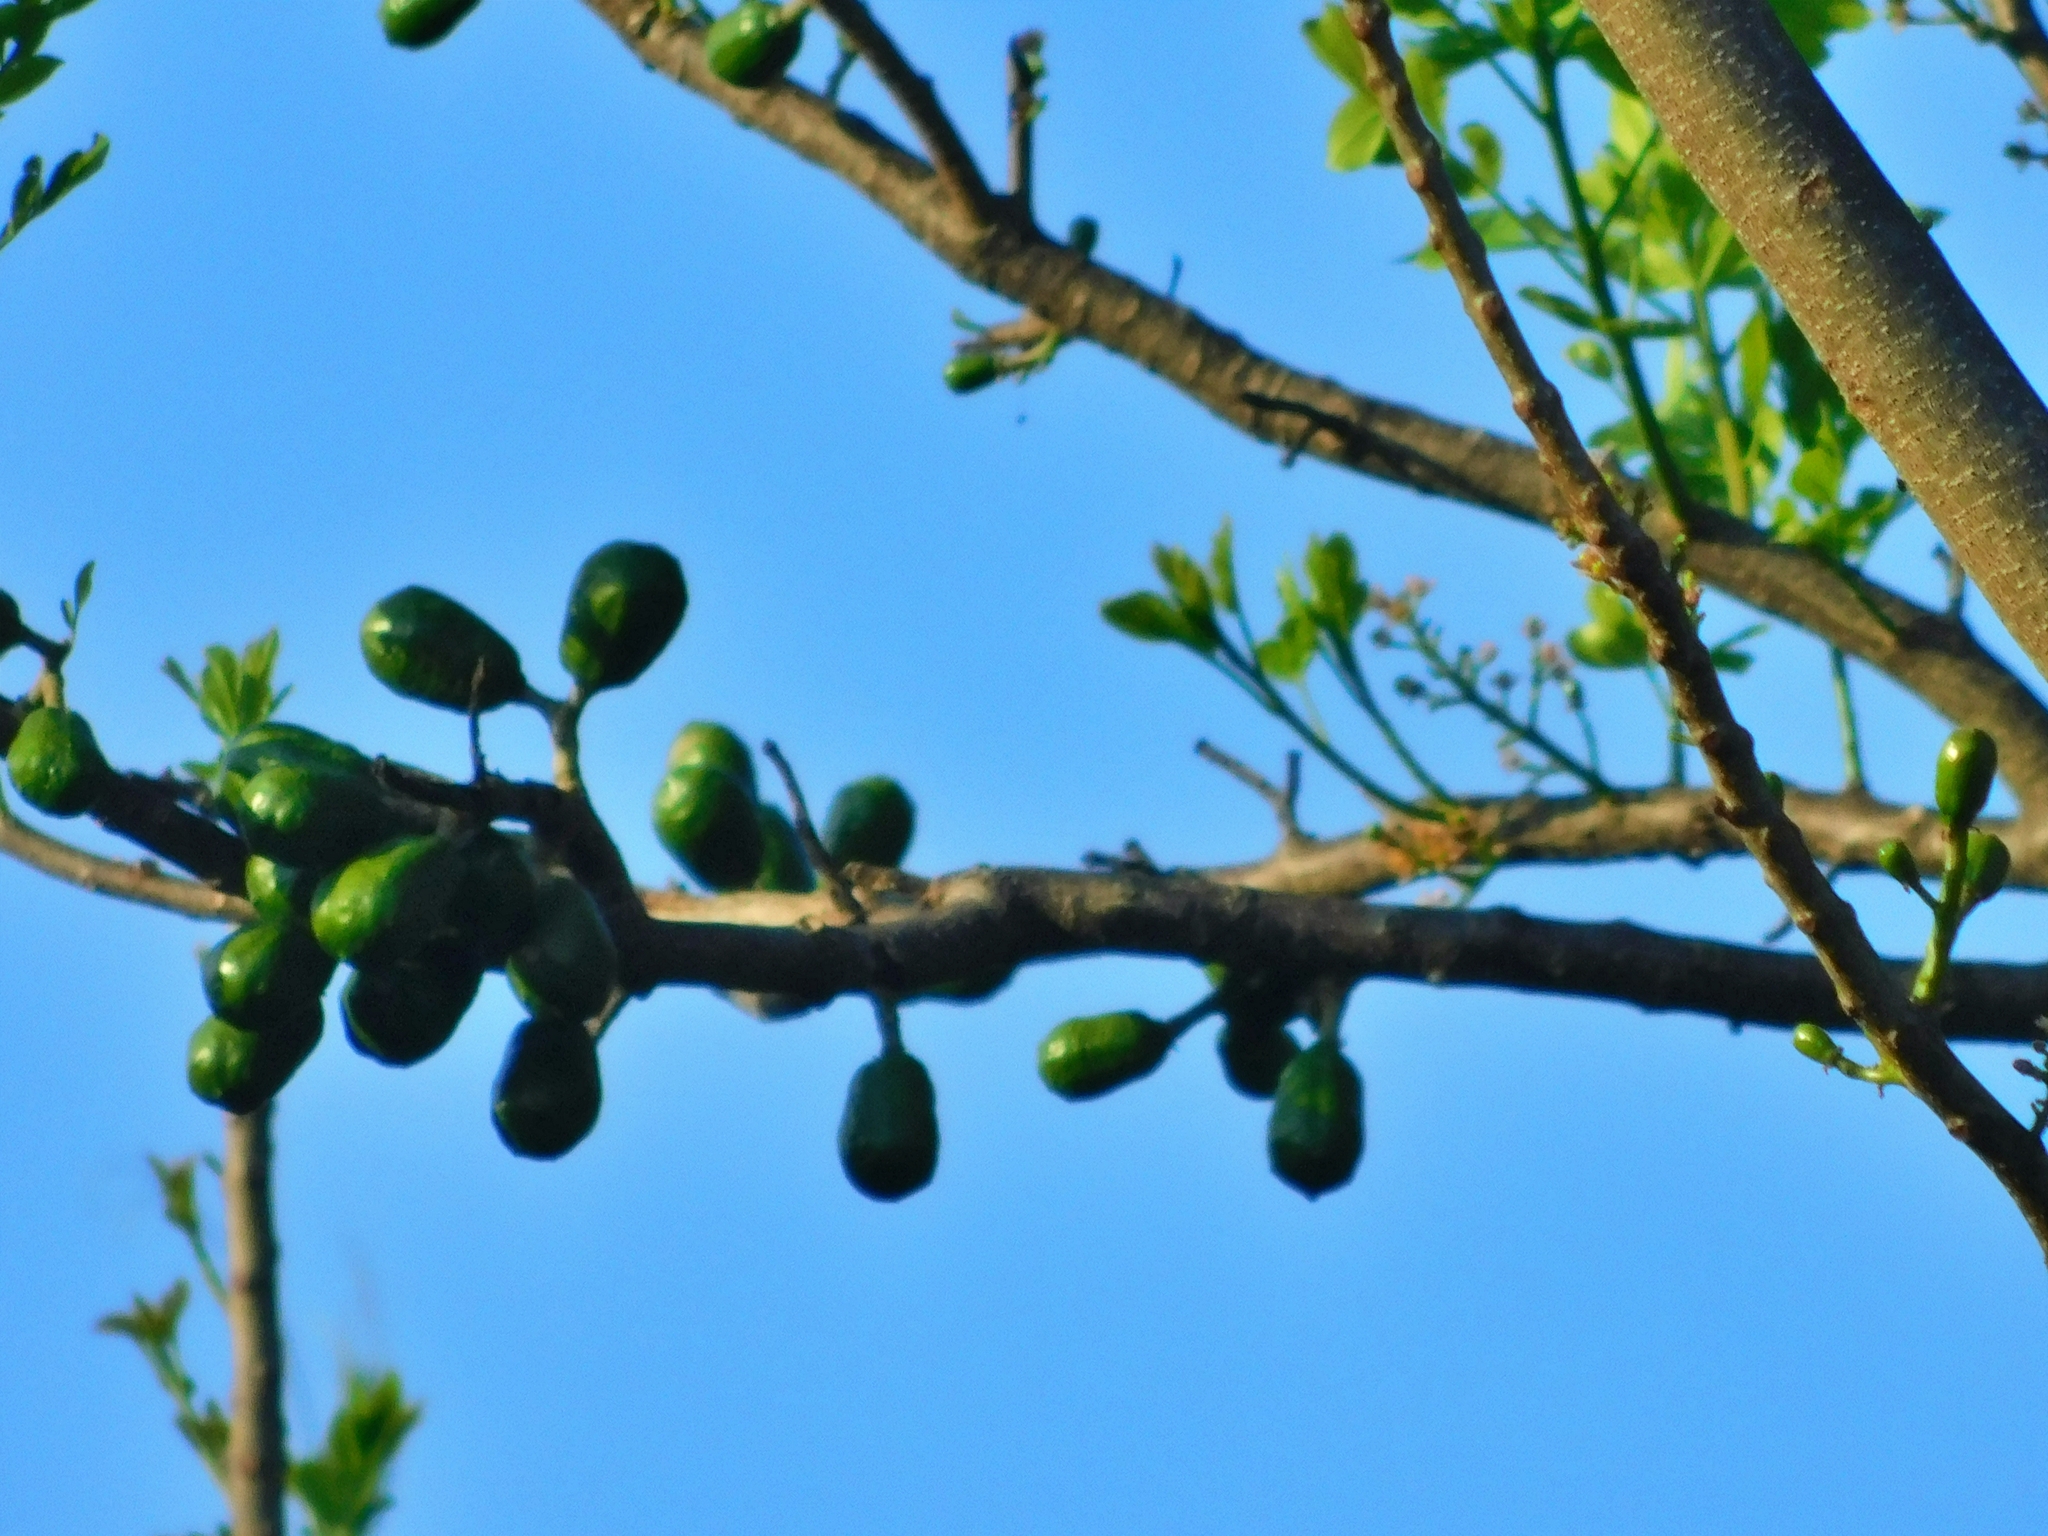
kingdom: Plantae
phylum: Tracheophyta
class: Magnoliopsida
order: Sapindales
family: Anacardiaceae
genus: Spondias
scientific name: Spondias purpurea
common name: Purple mombin
